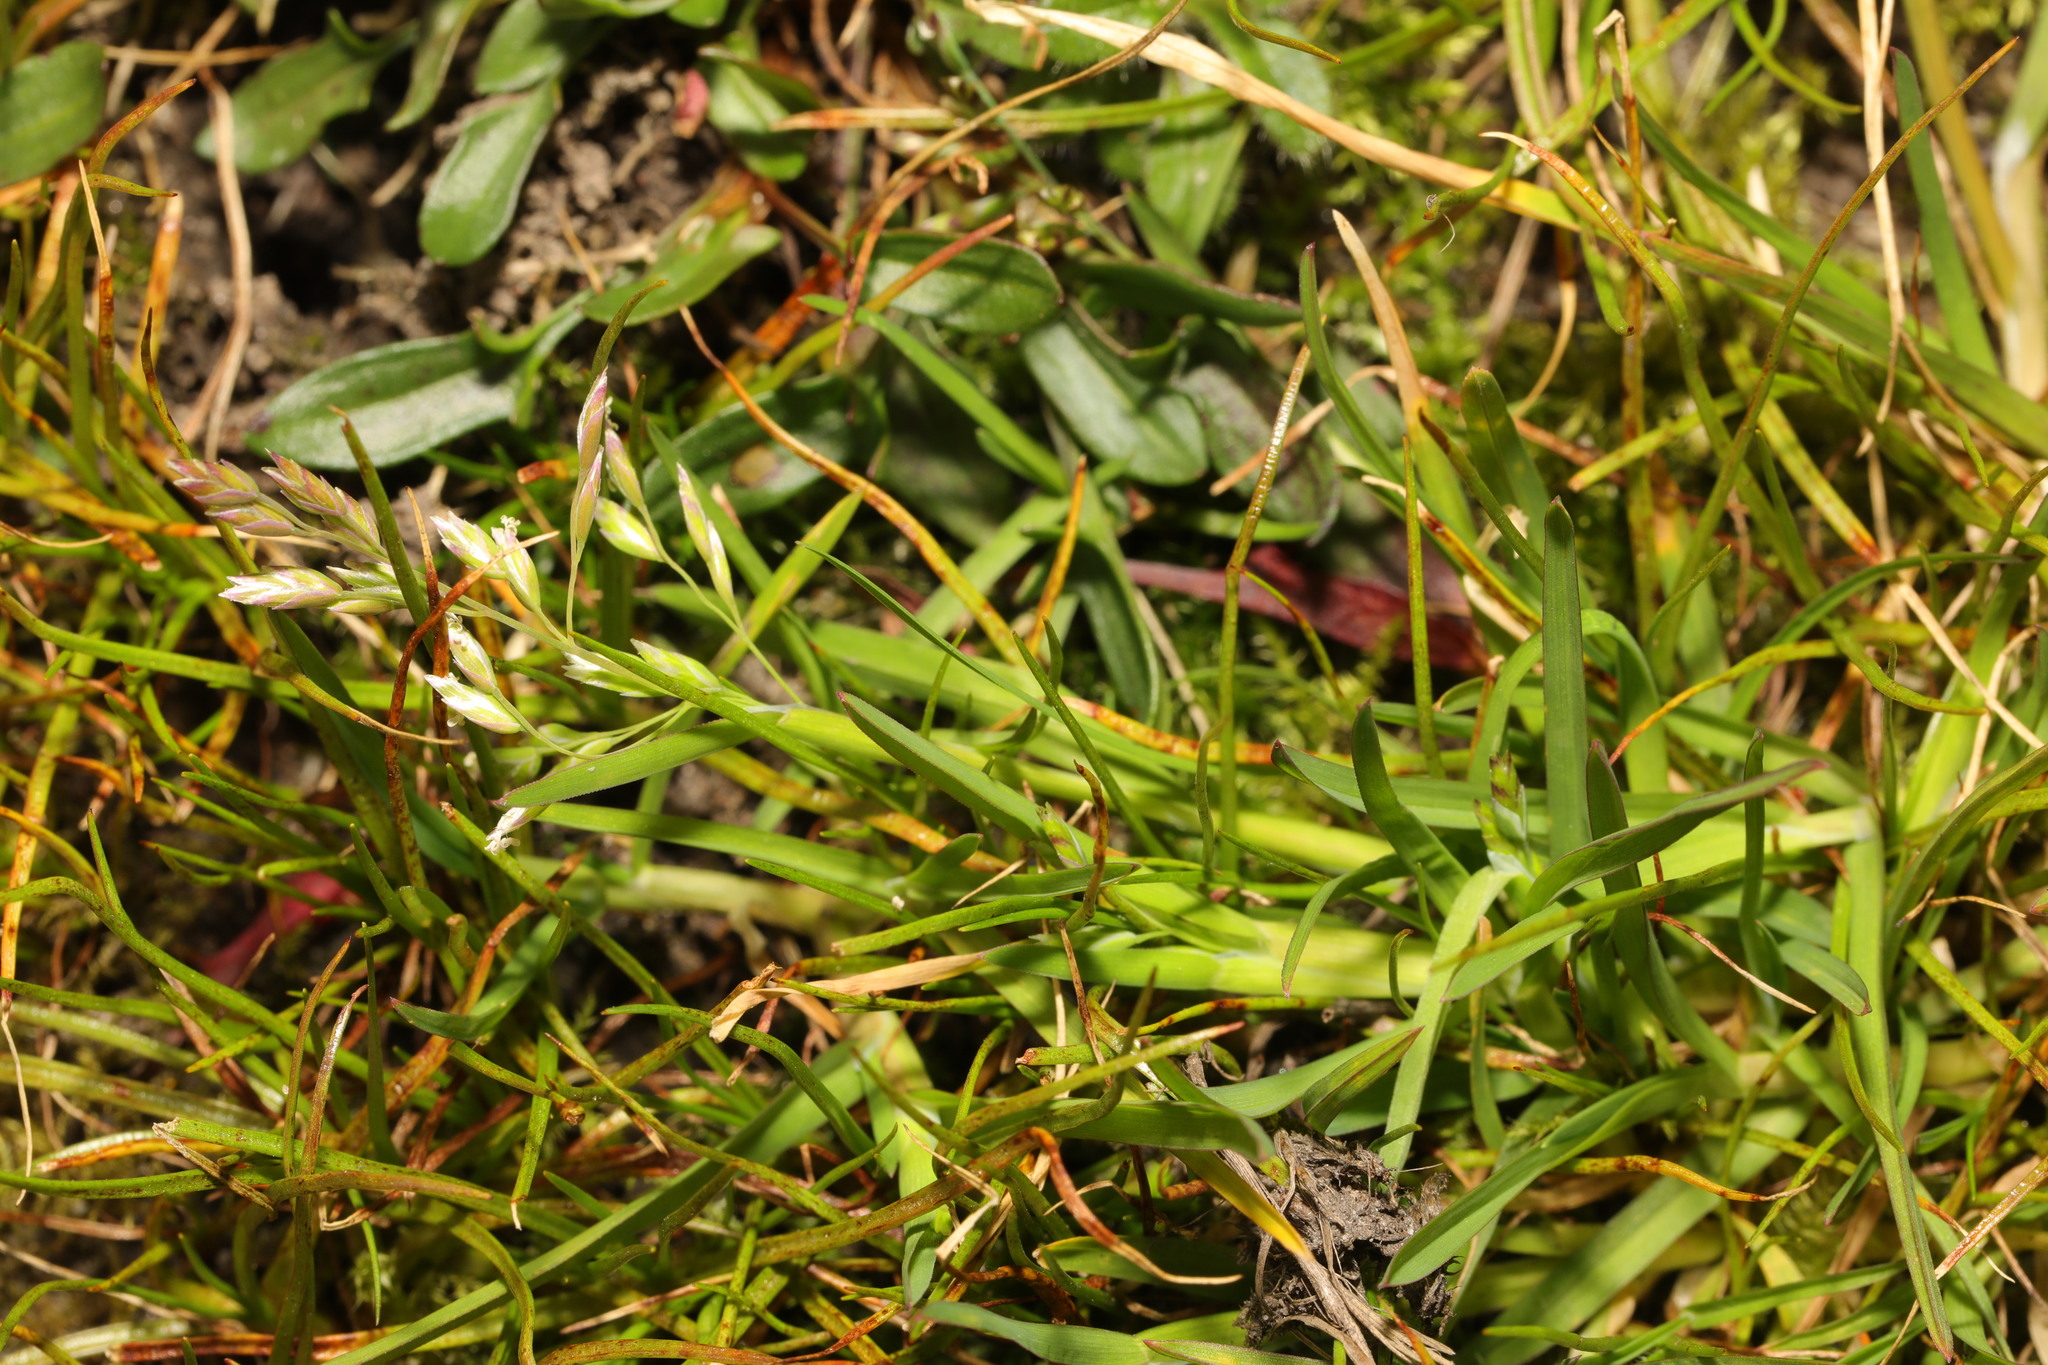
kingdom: Plantae
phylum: Tracheophyta
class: Liliopsida
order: Poales
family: Poaceae
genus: Poa
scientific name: Poa annua
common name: Annual bluegrass
